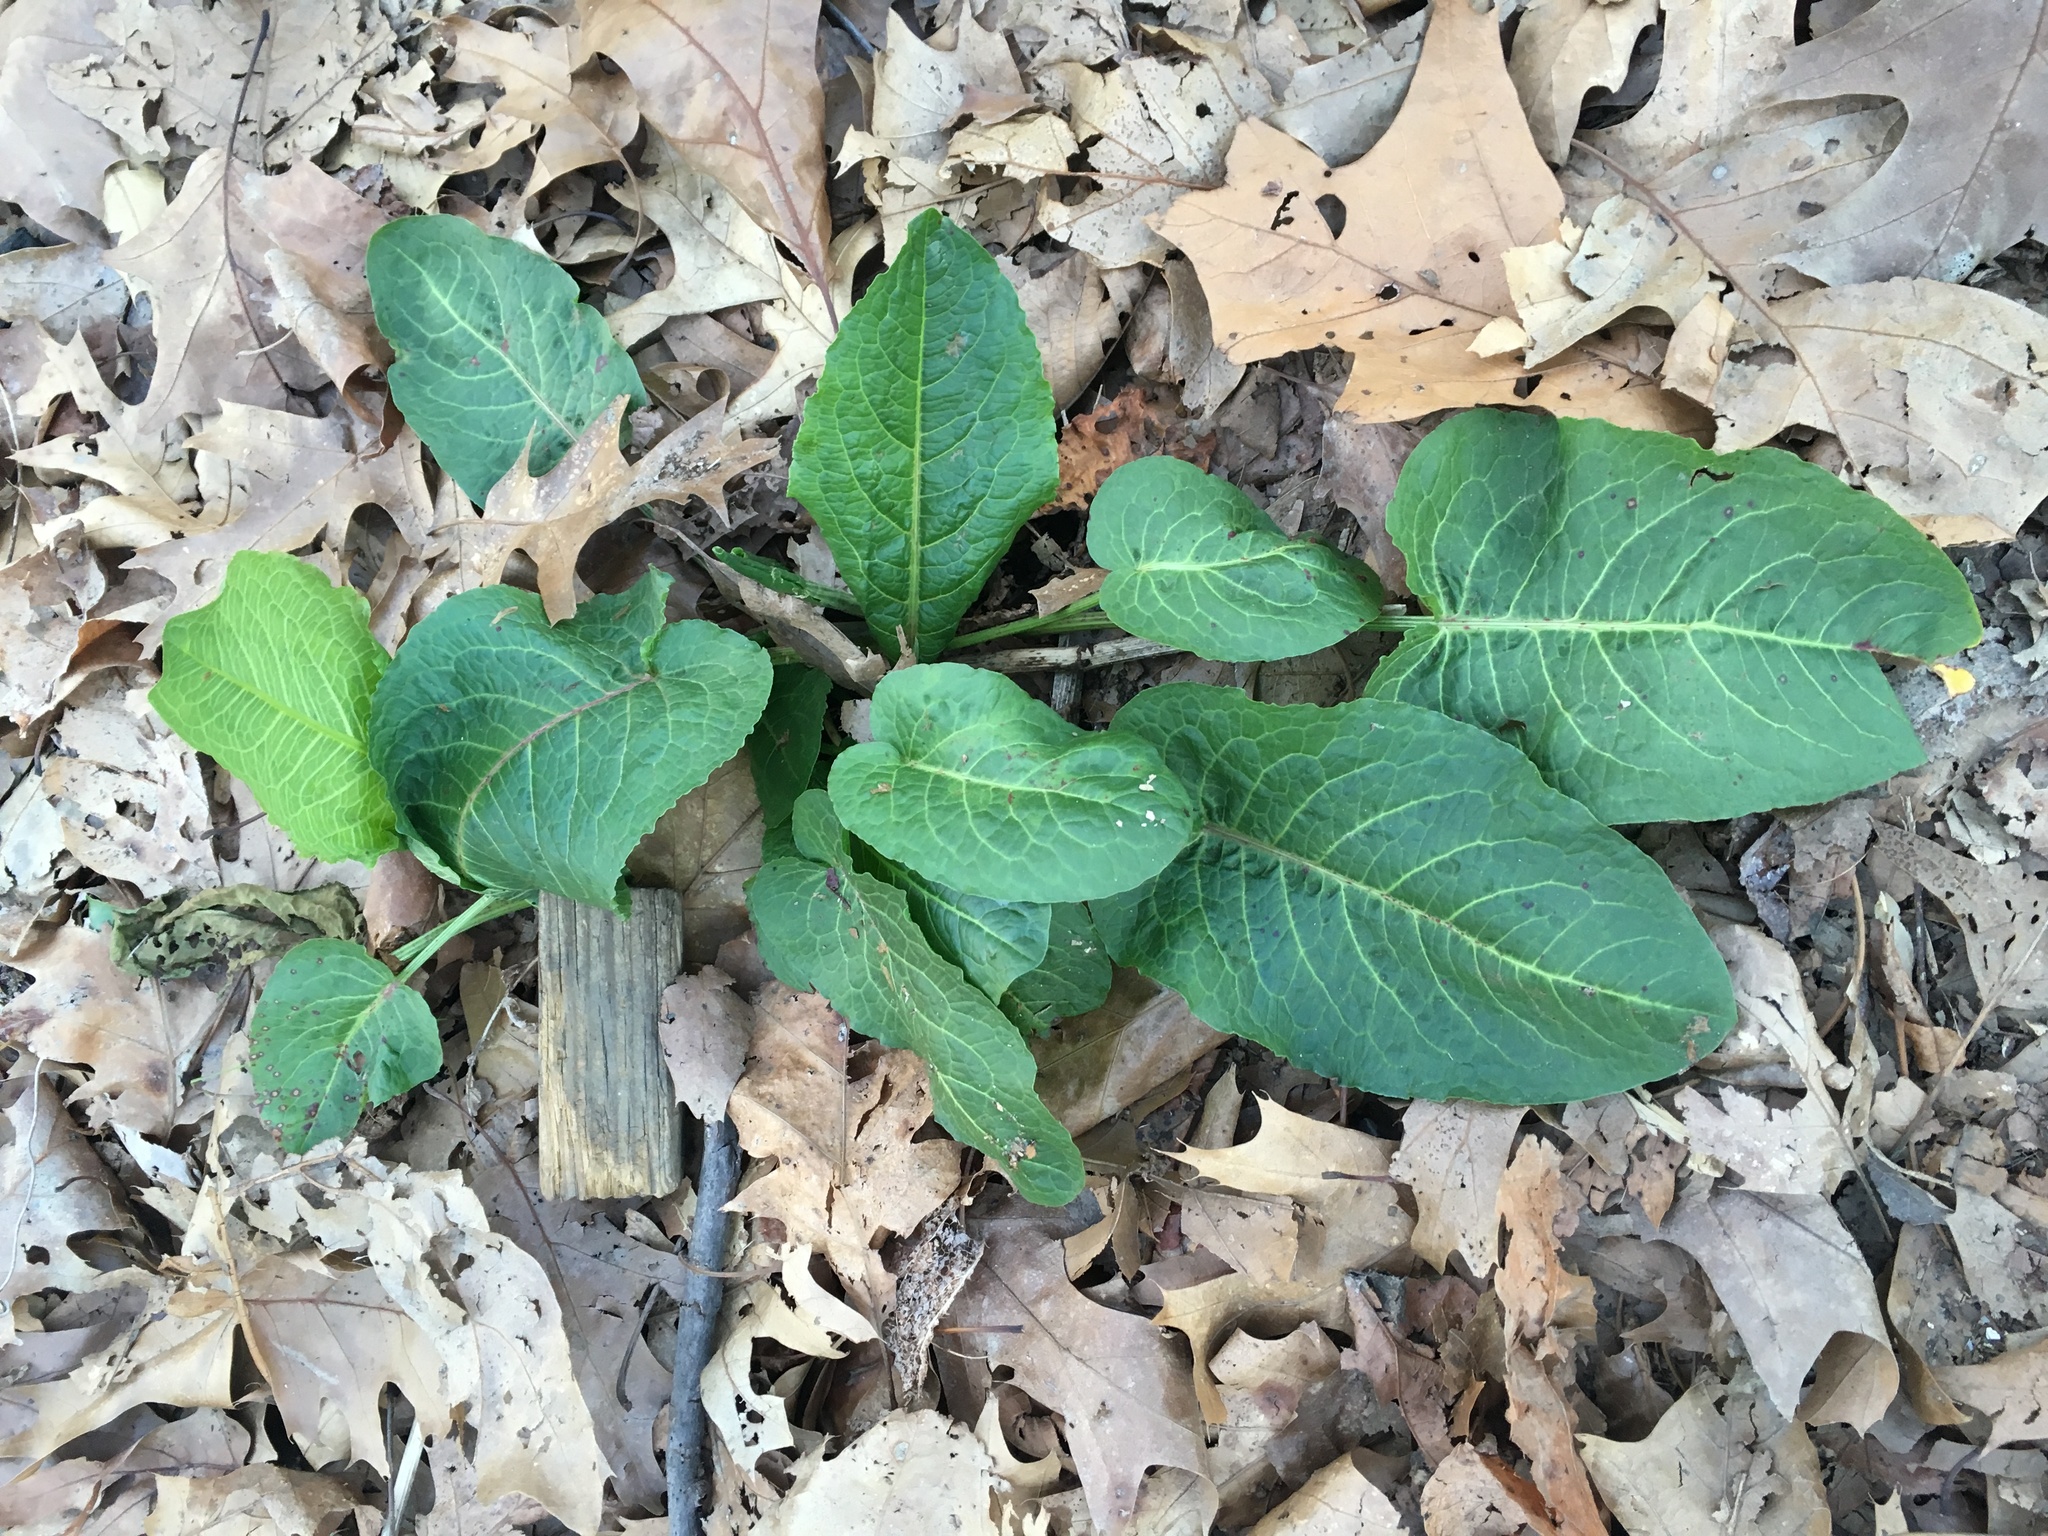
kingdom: Plantae
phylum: Tracheophyta
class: Magnoliopsida
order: Caryophyllales
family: Polygonaceae
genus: Rumex
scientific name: Rumex obtusifolius
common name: Bitter dock
